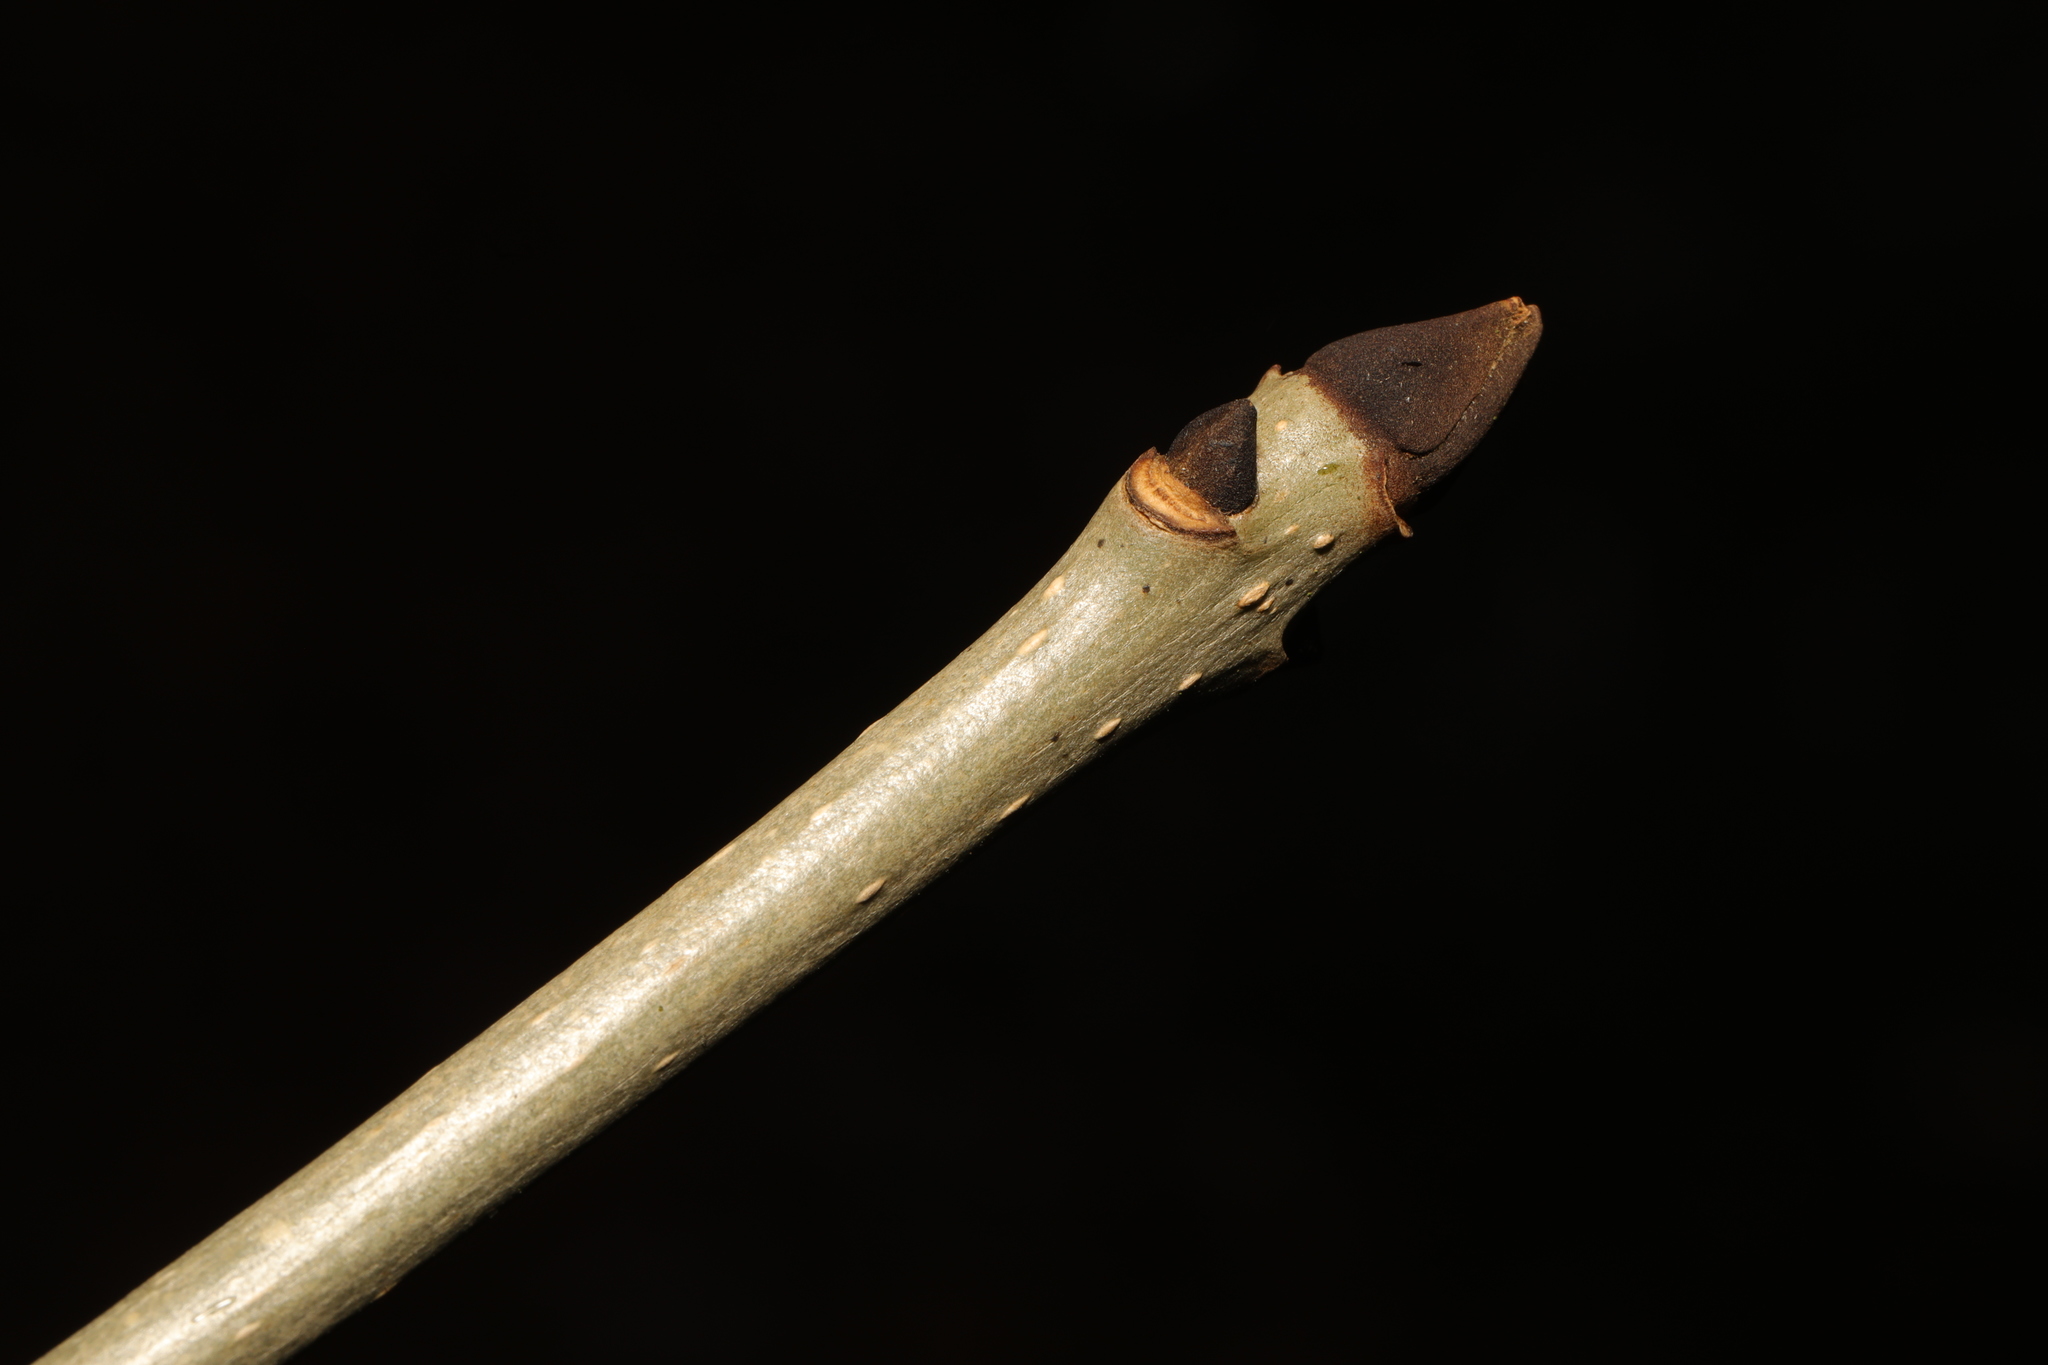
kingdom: Plantae
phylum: Tracheophyta
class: Magnoliopsida
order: Lamiales
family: Oleaceae
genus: Fraxinus
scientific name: Fraxinus excelsior
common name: European ash
